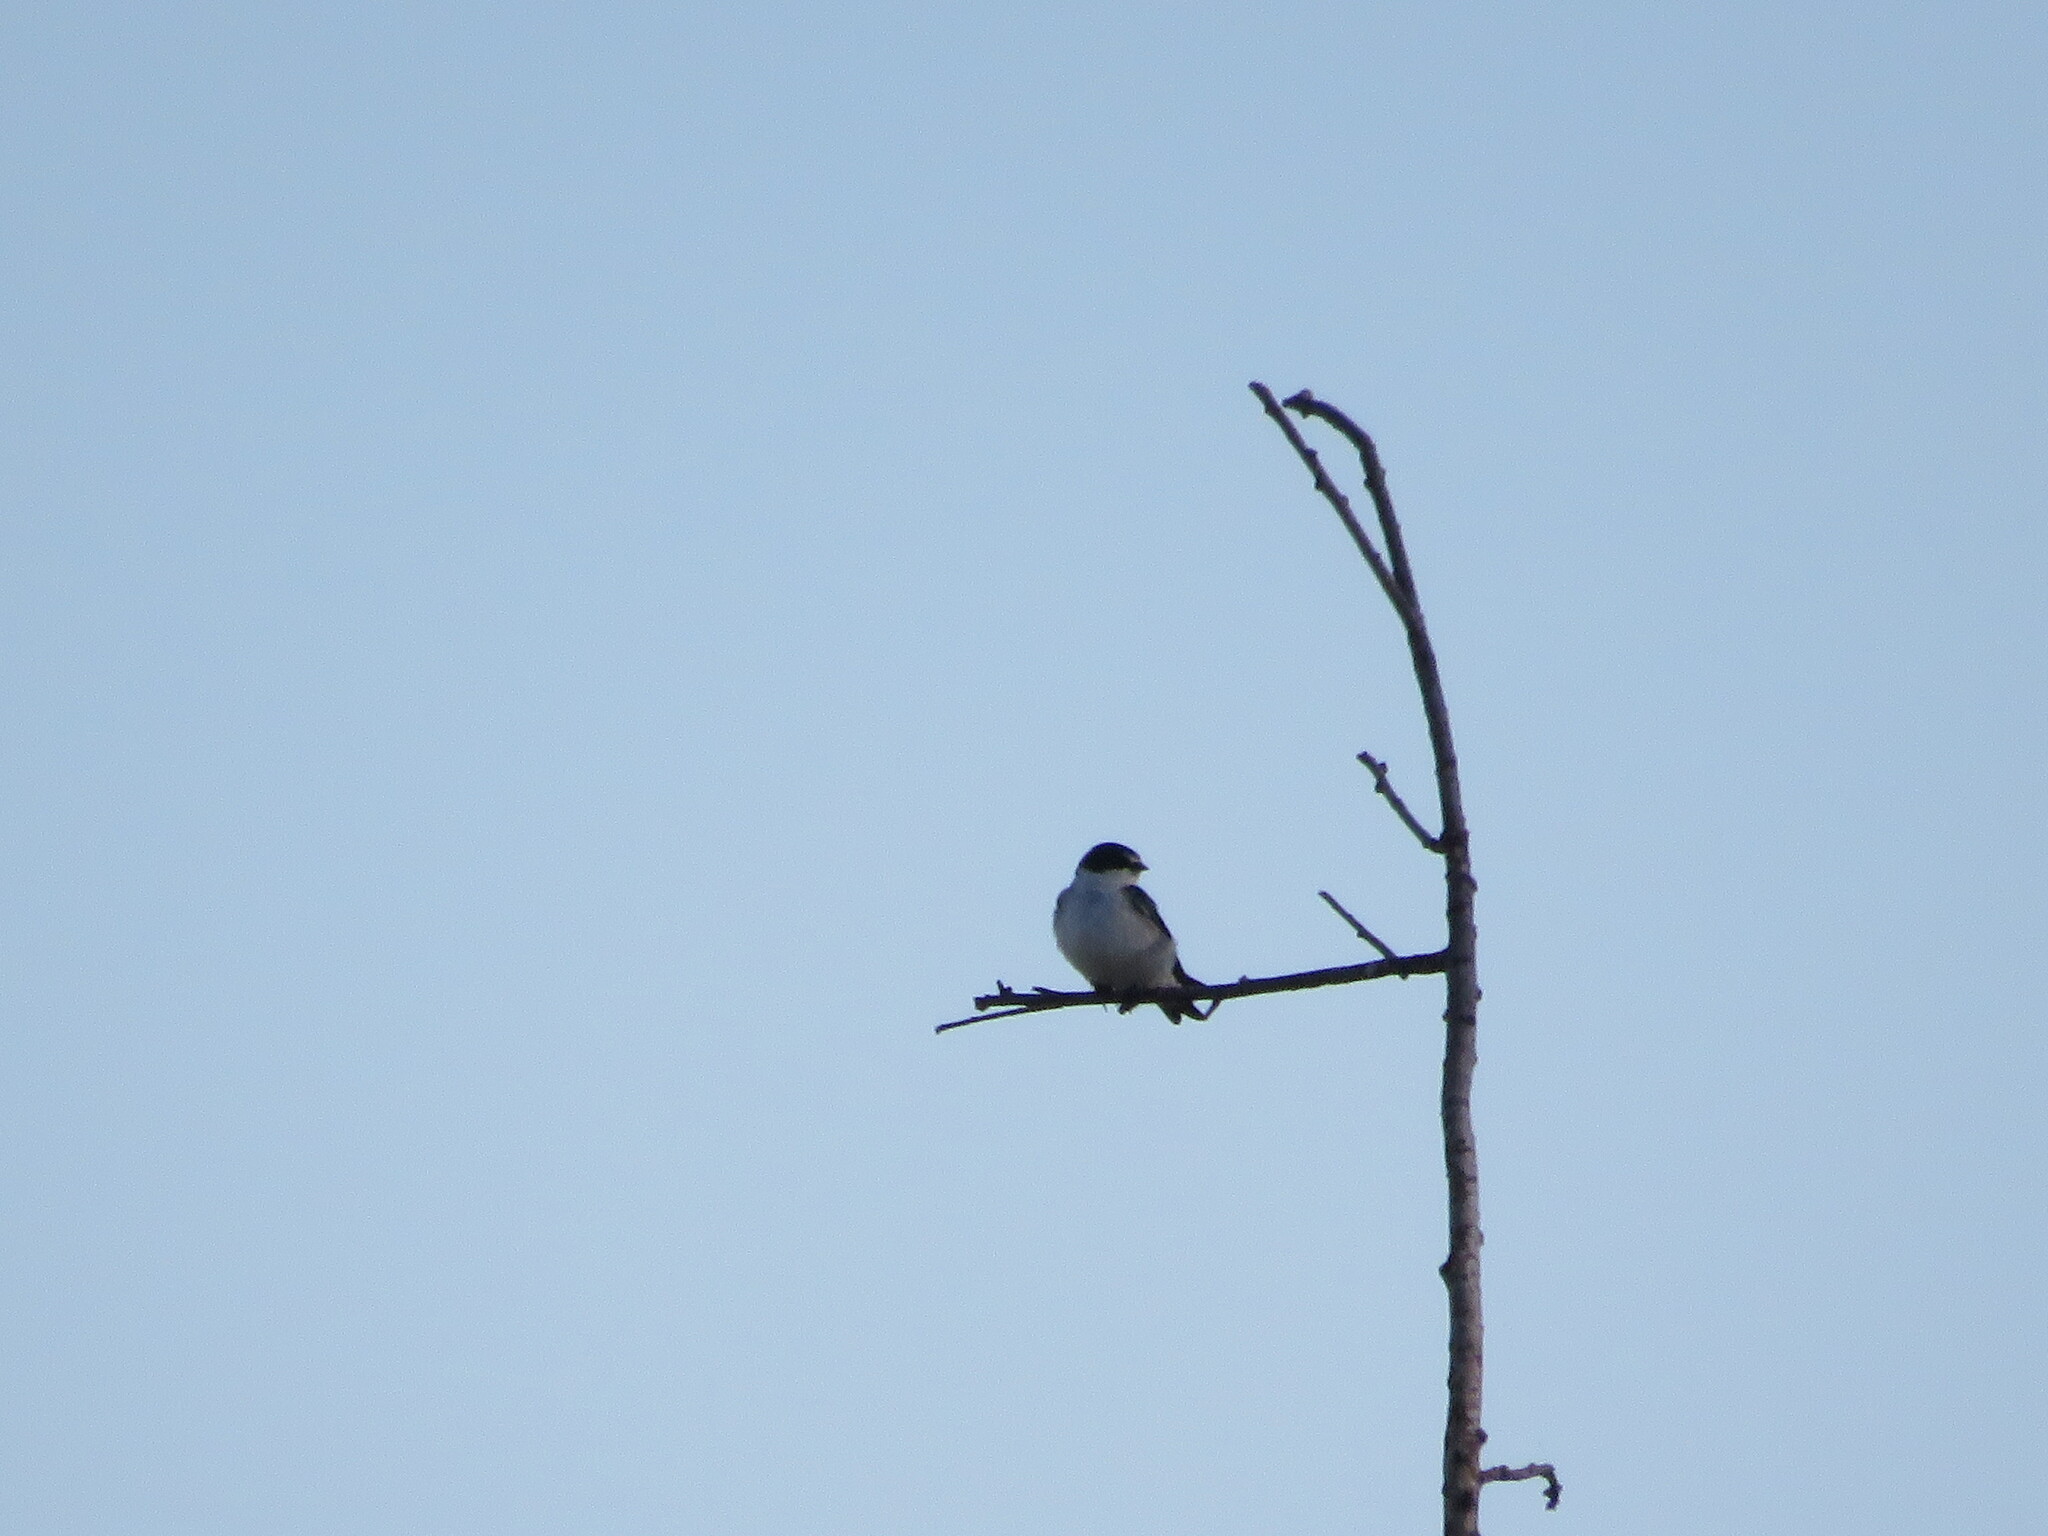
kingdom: Animalia
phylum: Chordata
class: Aves
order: Passeriformes
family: Hirundinidae
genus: Tachycineta
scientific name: Tachycineta leucorrhoa
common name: White-rumped swallow
